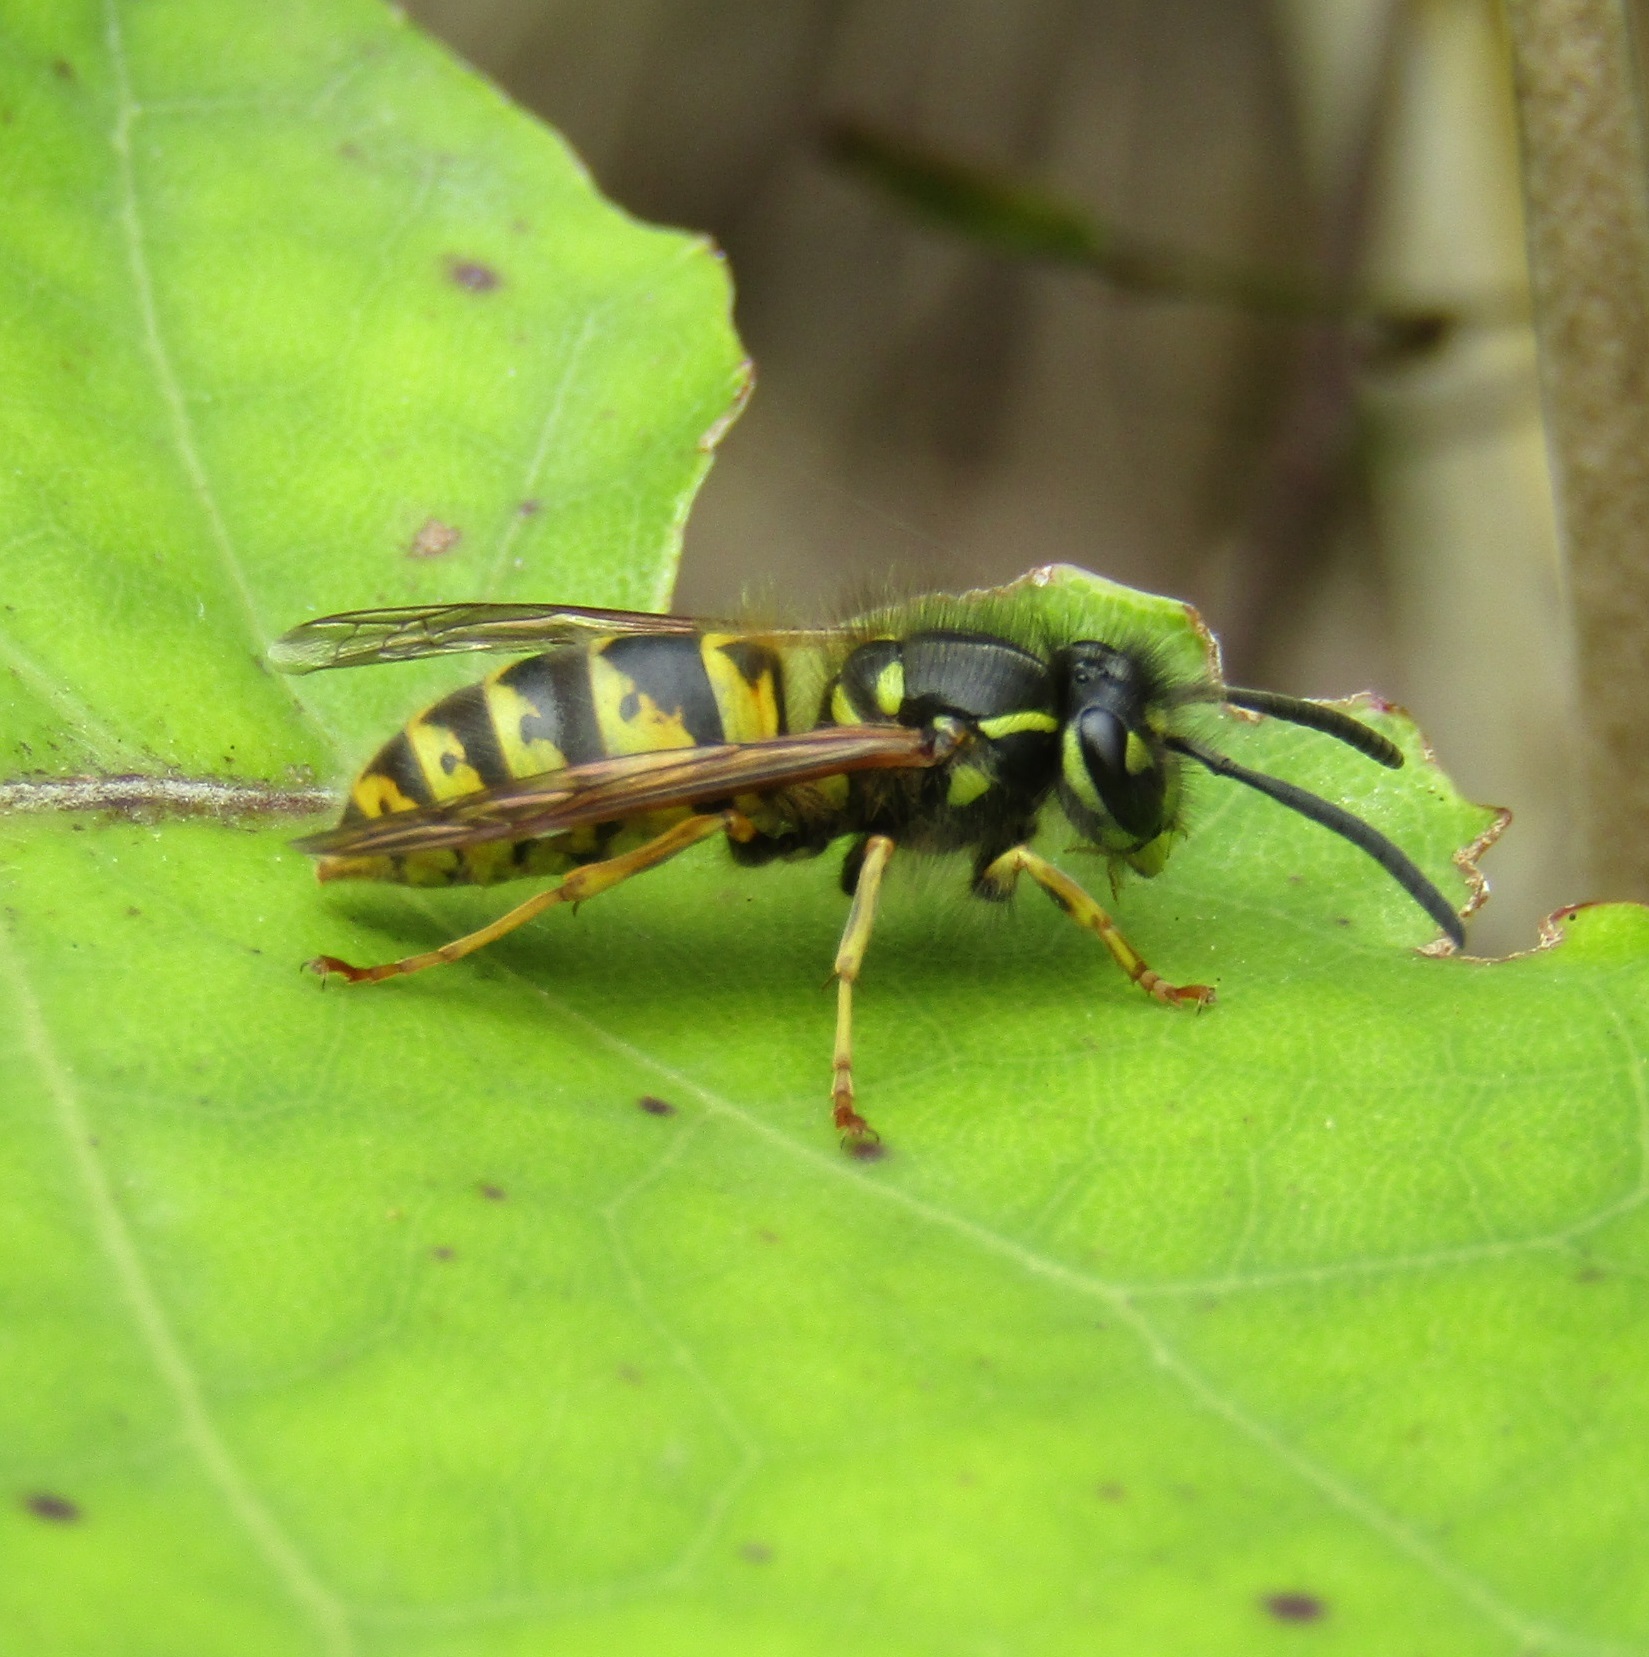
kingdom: Animalia
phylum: Arthropoda
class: Insecta
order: Hymenoptera
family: Vespidae
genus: Vespula
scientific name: Vespula vulgaris
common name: Common wasp
